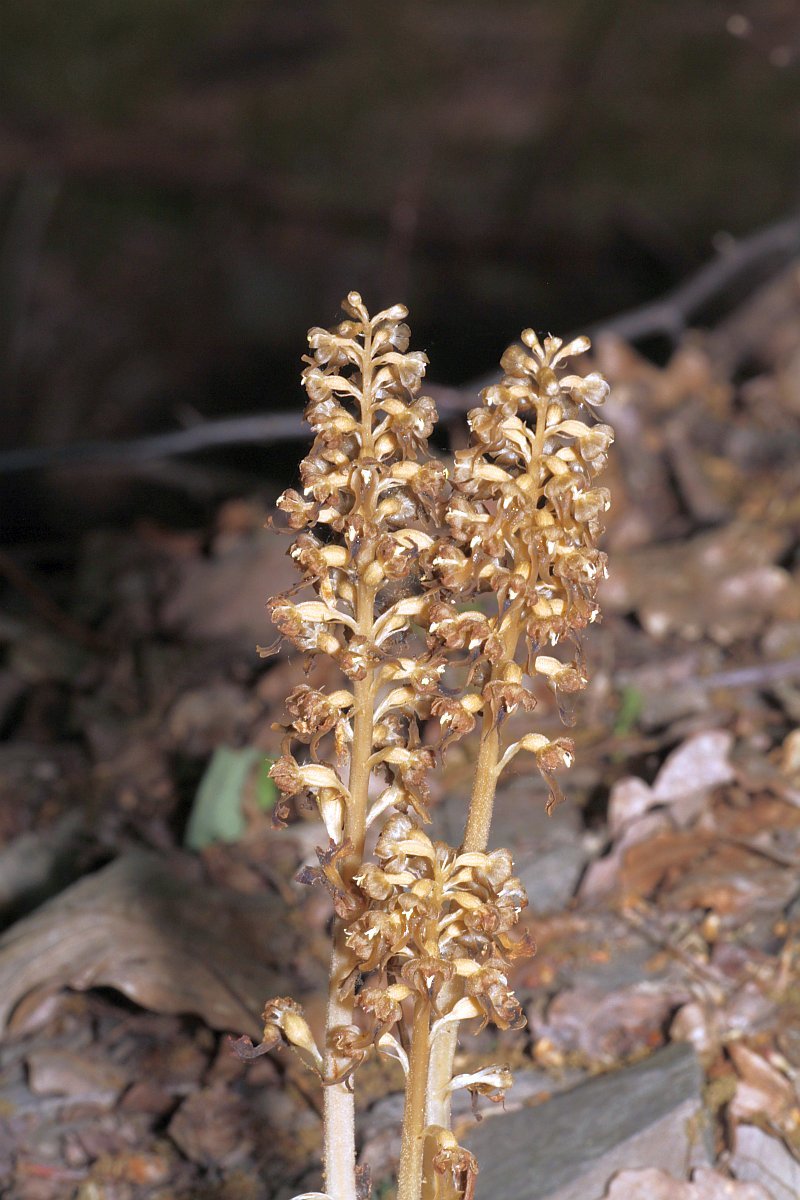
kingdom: Plantae
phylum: Tracheophyta
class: Liliopsida
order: Asparagales
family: Orchidaceae
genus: Neottia
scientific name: Neottia nidus-avis
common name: Bird's-nest orchid
